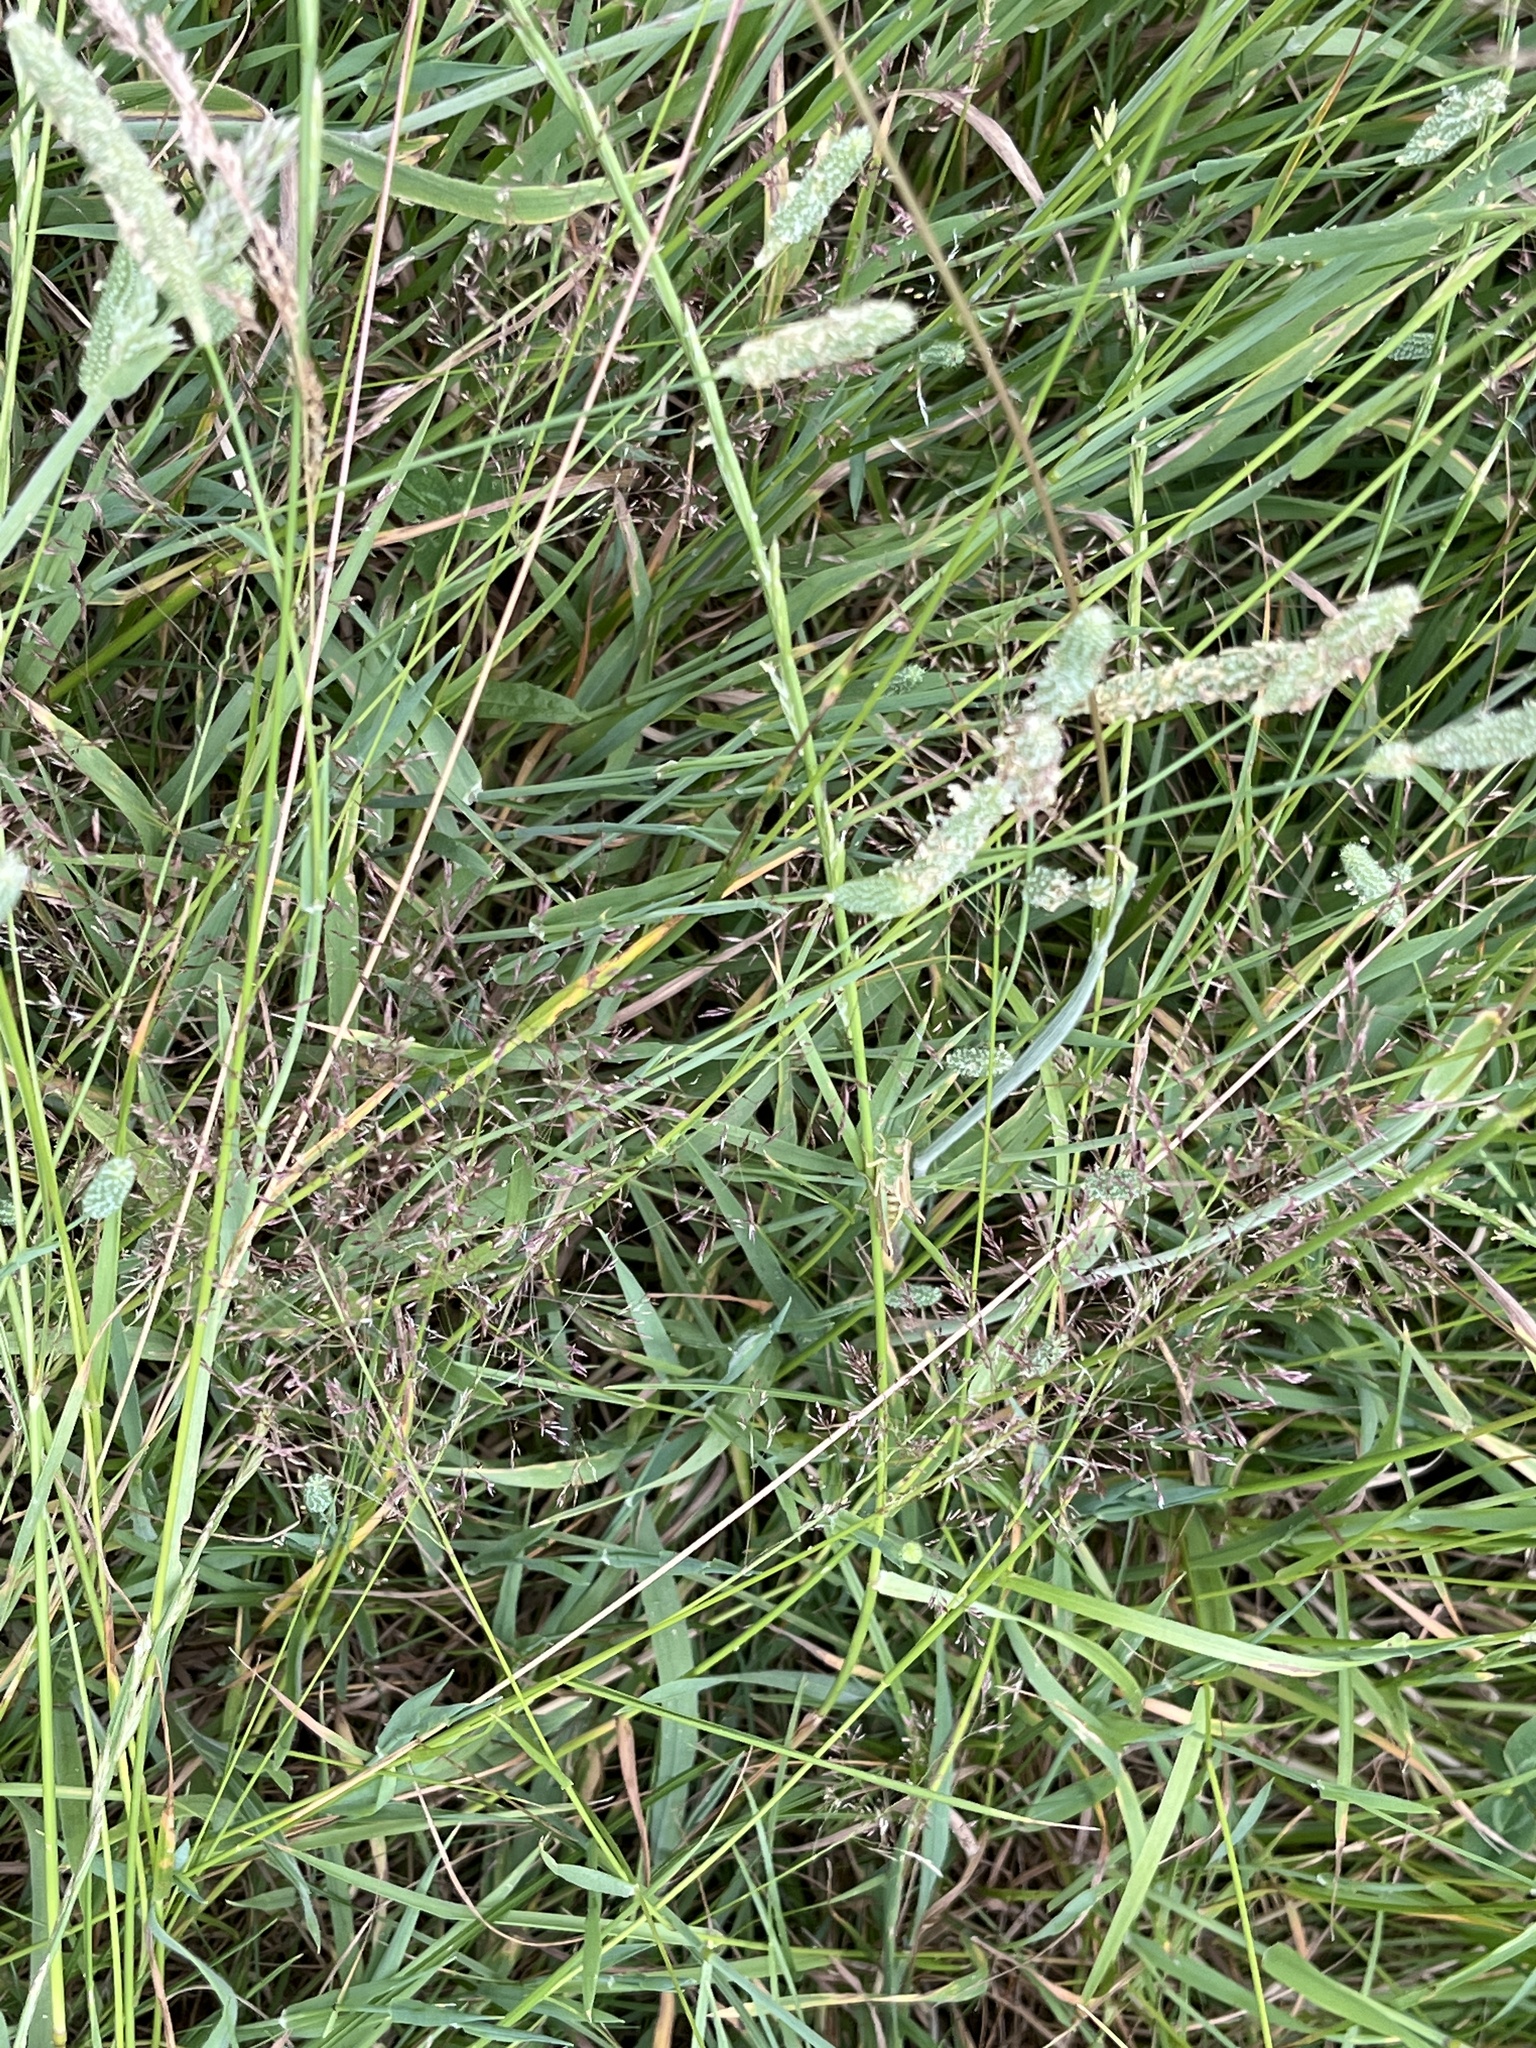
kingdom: Animalia
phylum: Arthropoda
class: Insecta
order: Orthoptera
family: Acrididae
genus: Pseudochorthippus
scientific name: Pseudochorthippus parallelus
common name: Meadow grasshopper
